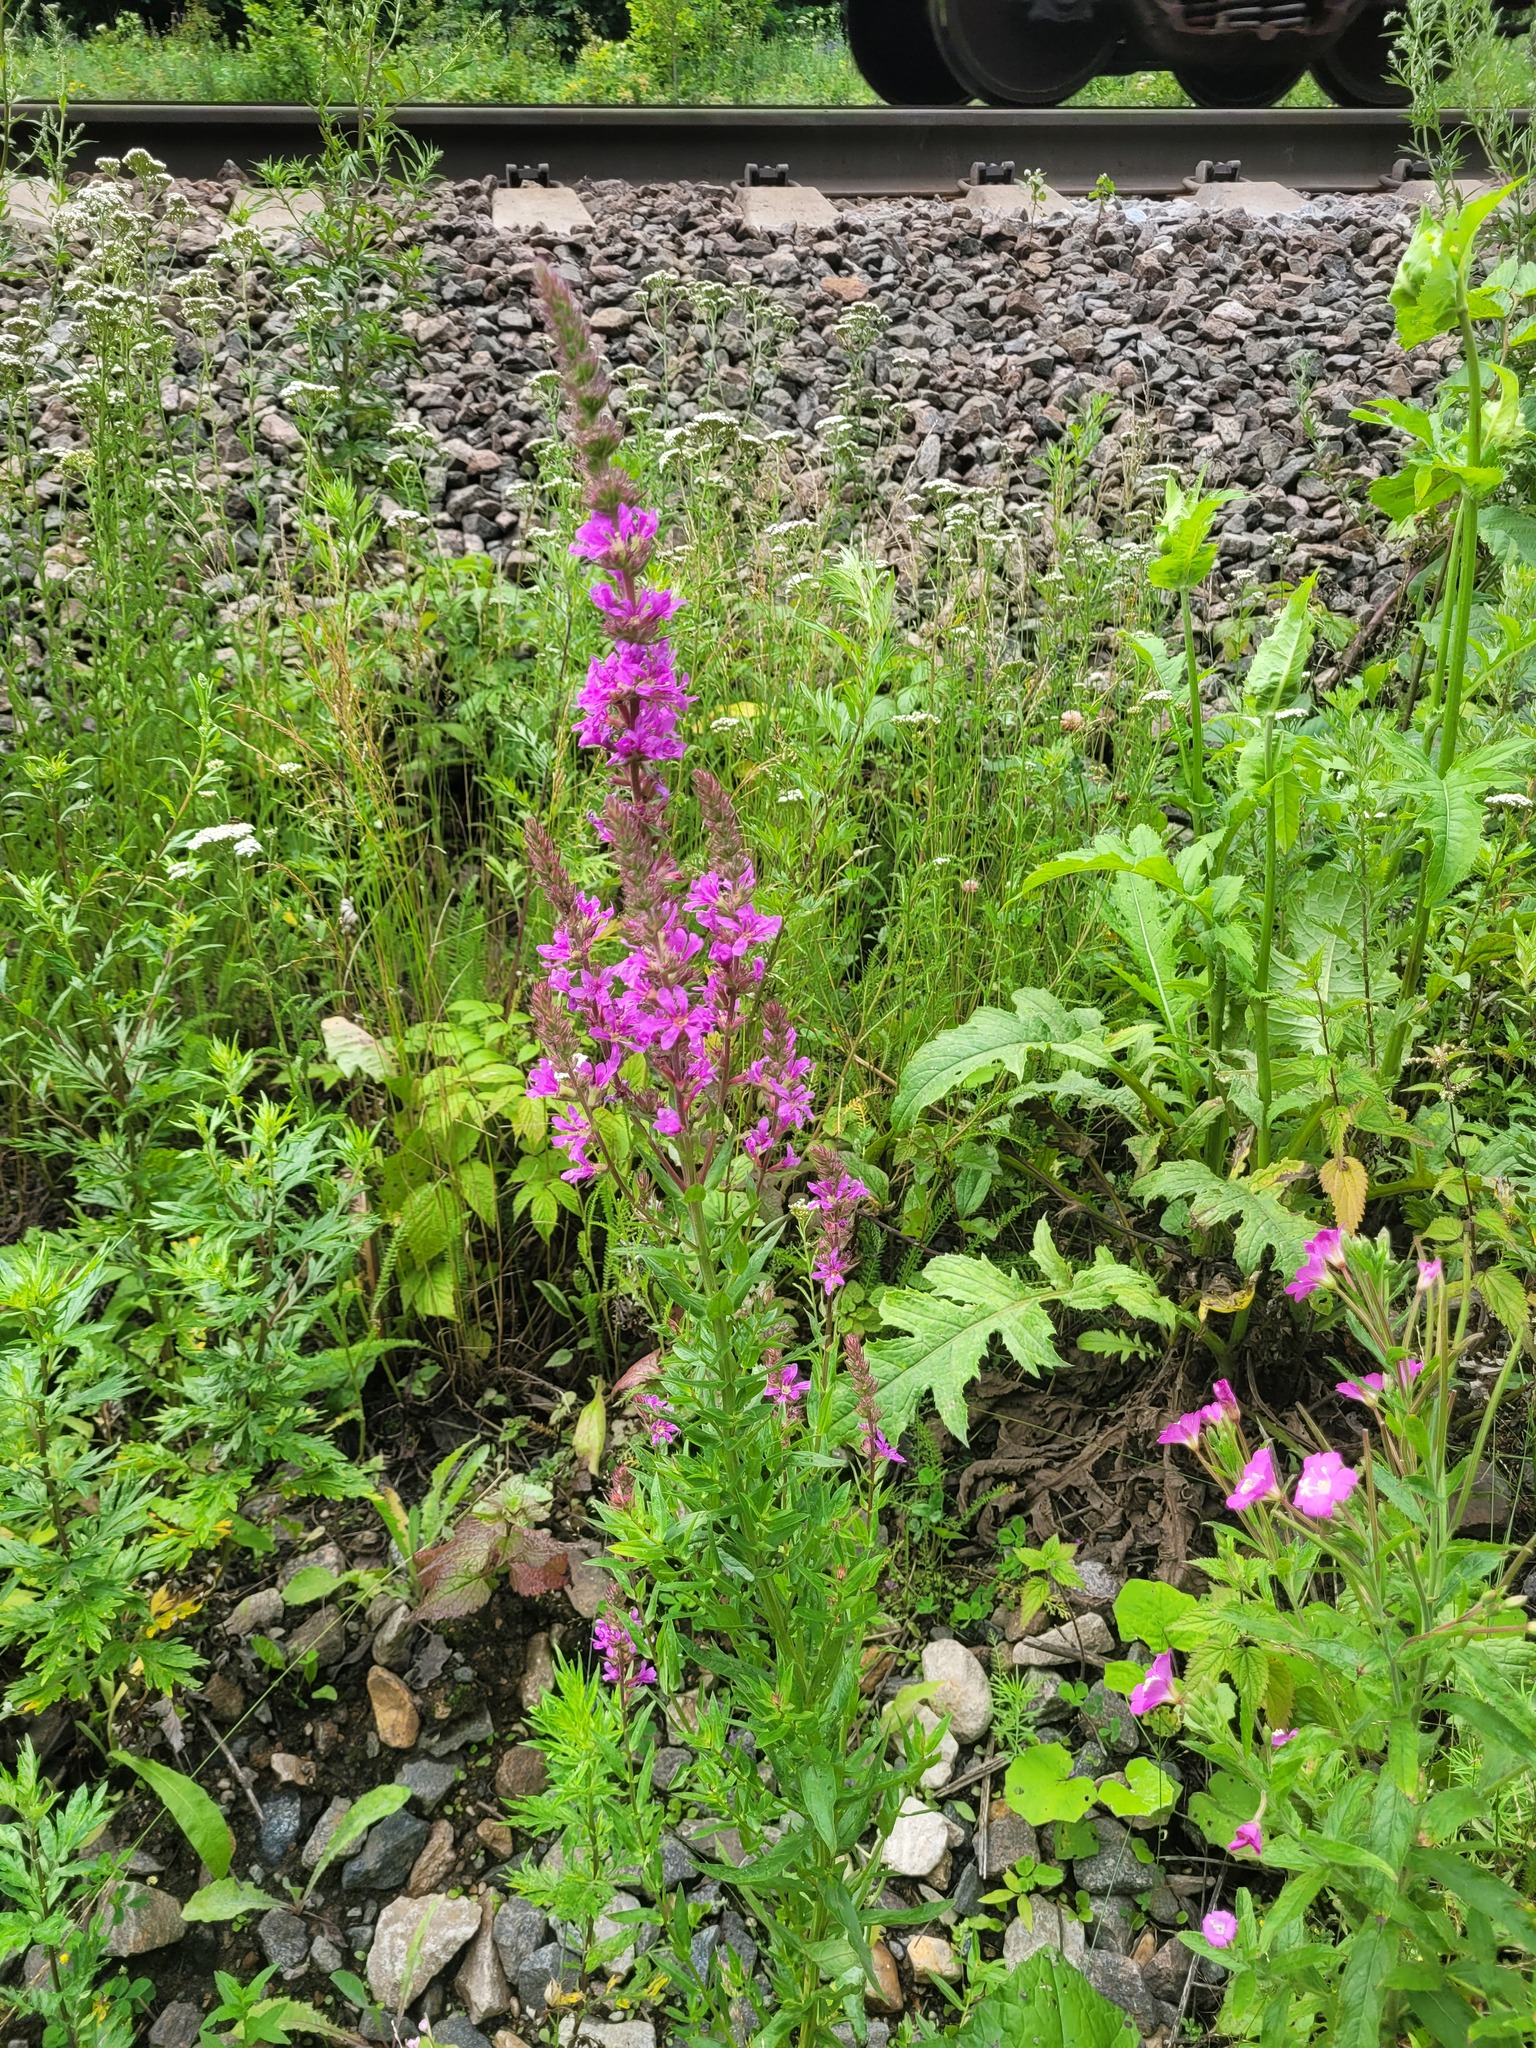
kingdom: Plantae
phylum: Tracheophyta
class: Magnoliopsida
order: Myrtales
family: Lythraceae
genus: Lythrum
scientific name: Lythrum salicaria
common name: Purple loosestrife
